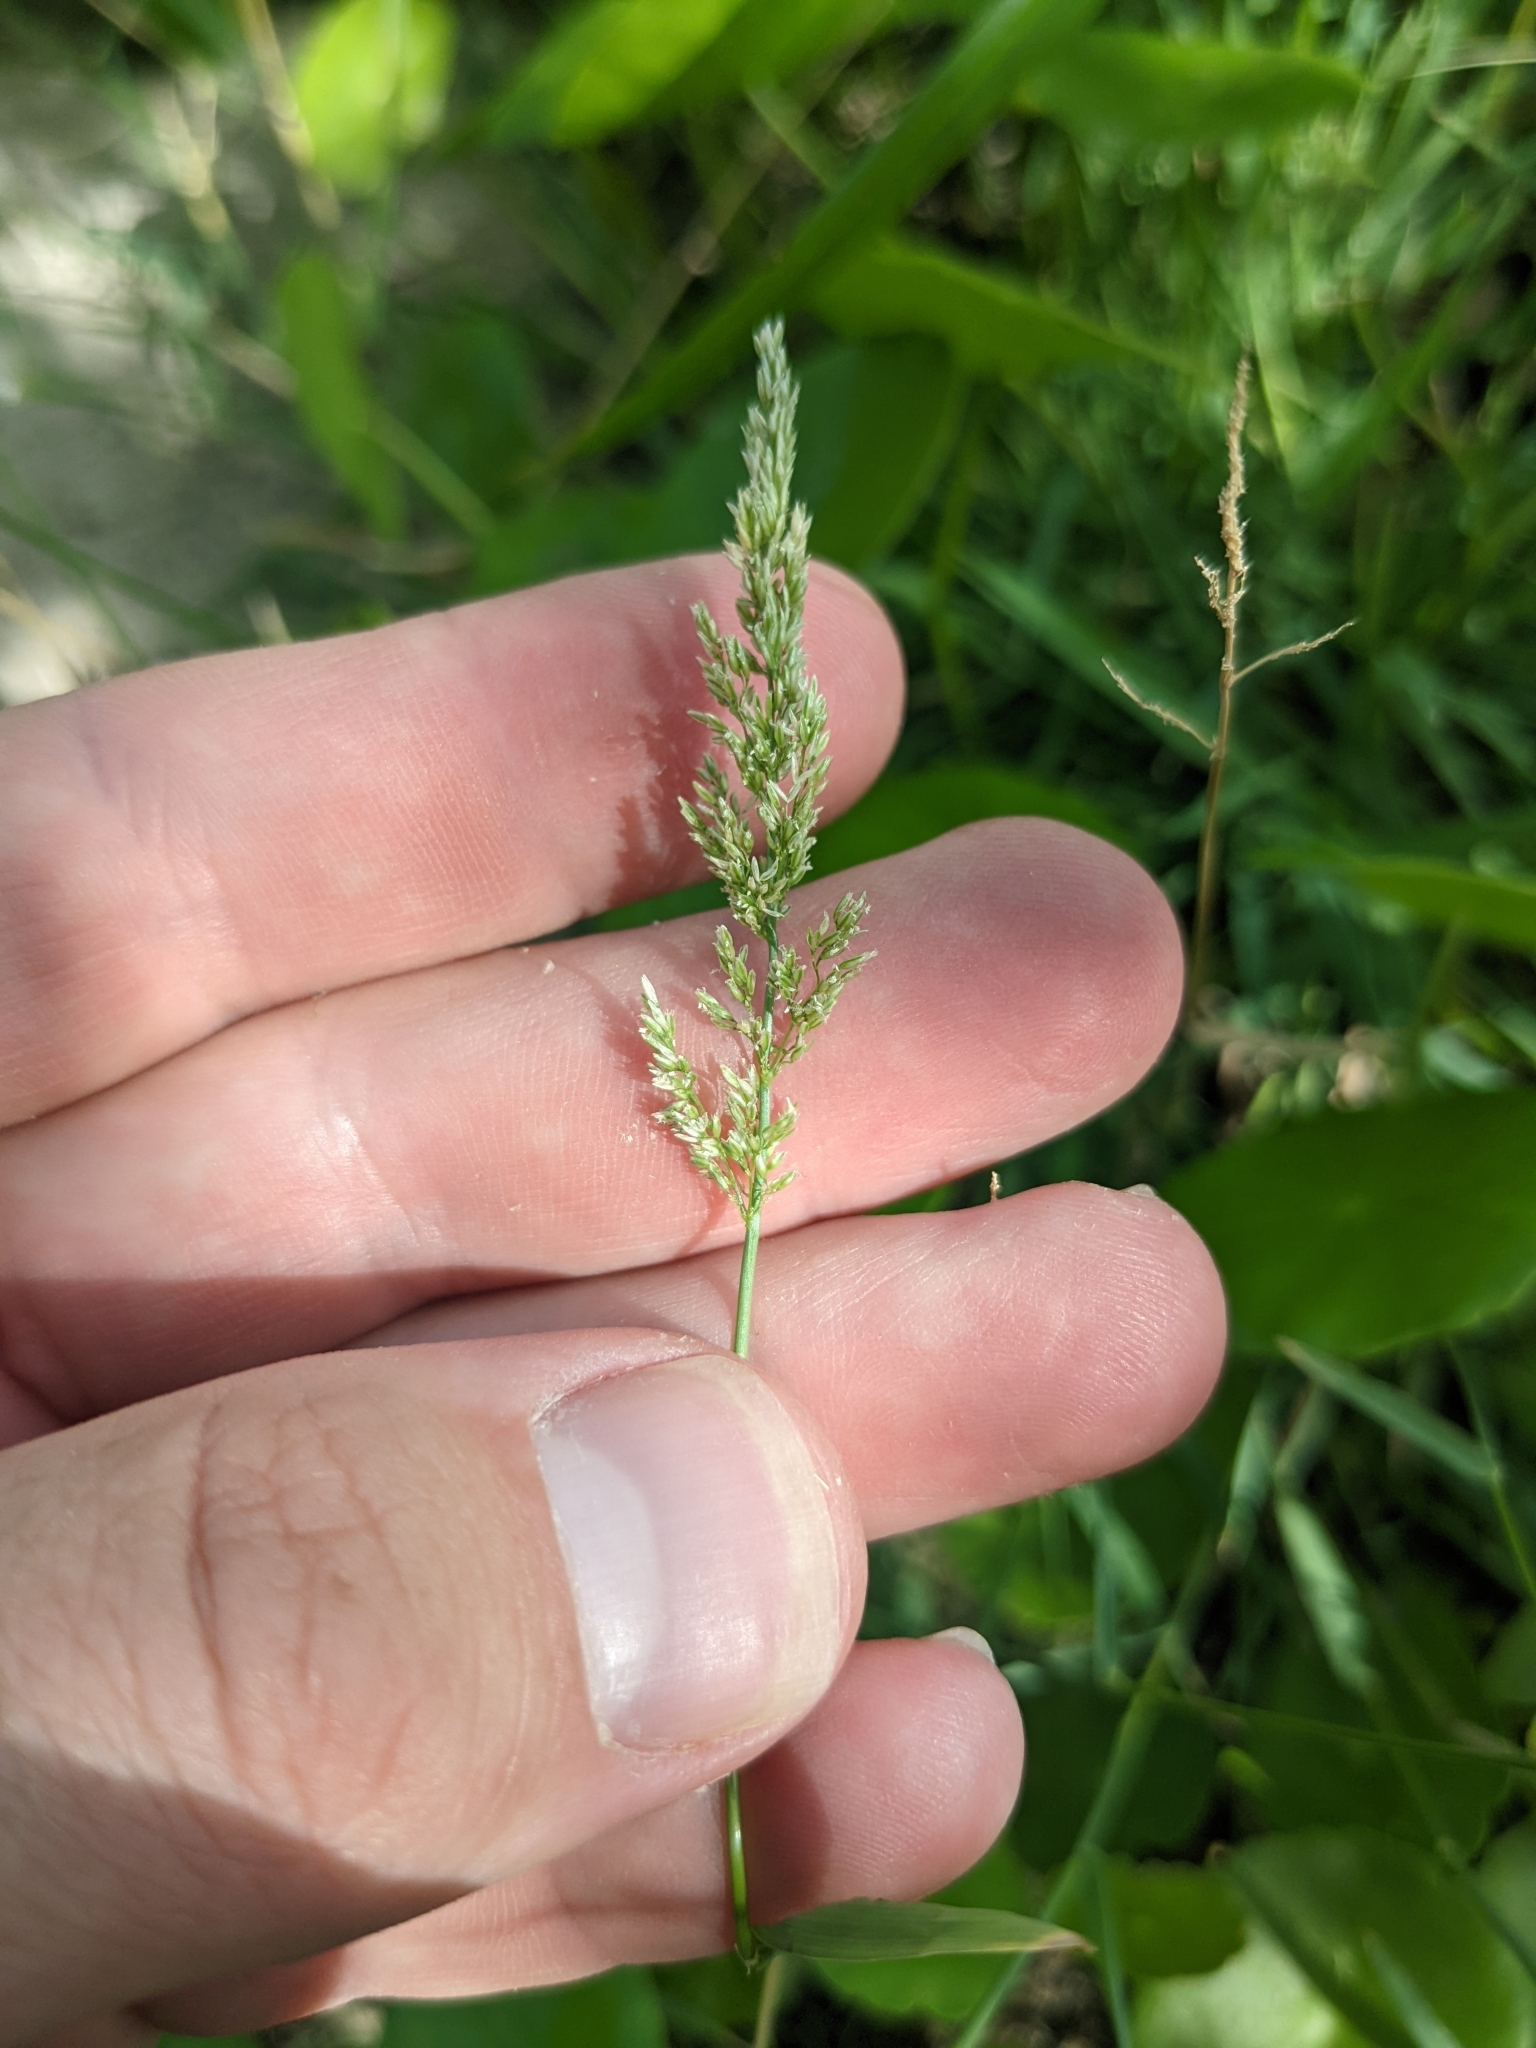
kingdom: Plantae
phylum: Tracheophyta
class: Liliopsida
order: Poales
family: Poaceae
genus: Polypogon
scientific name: Polypogon viridis
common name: Water bent
